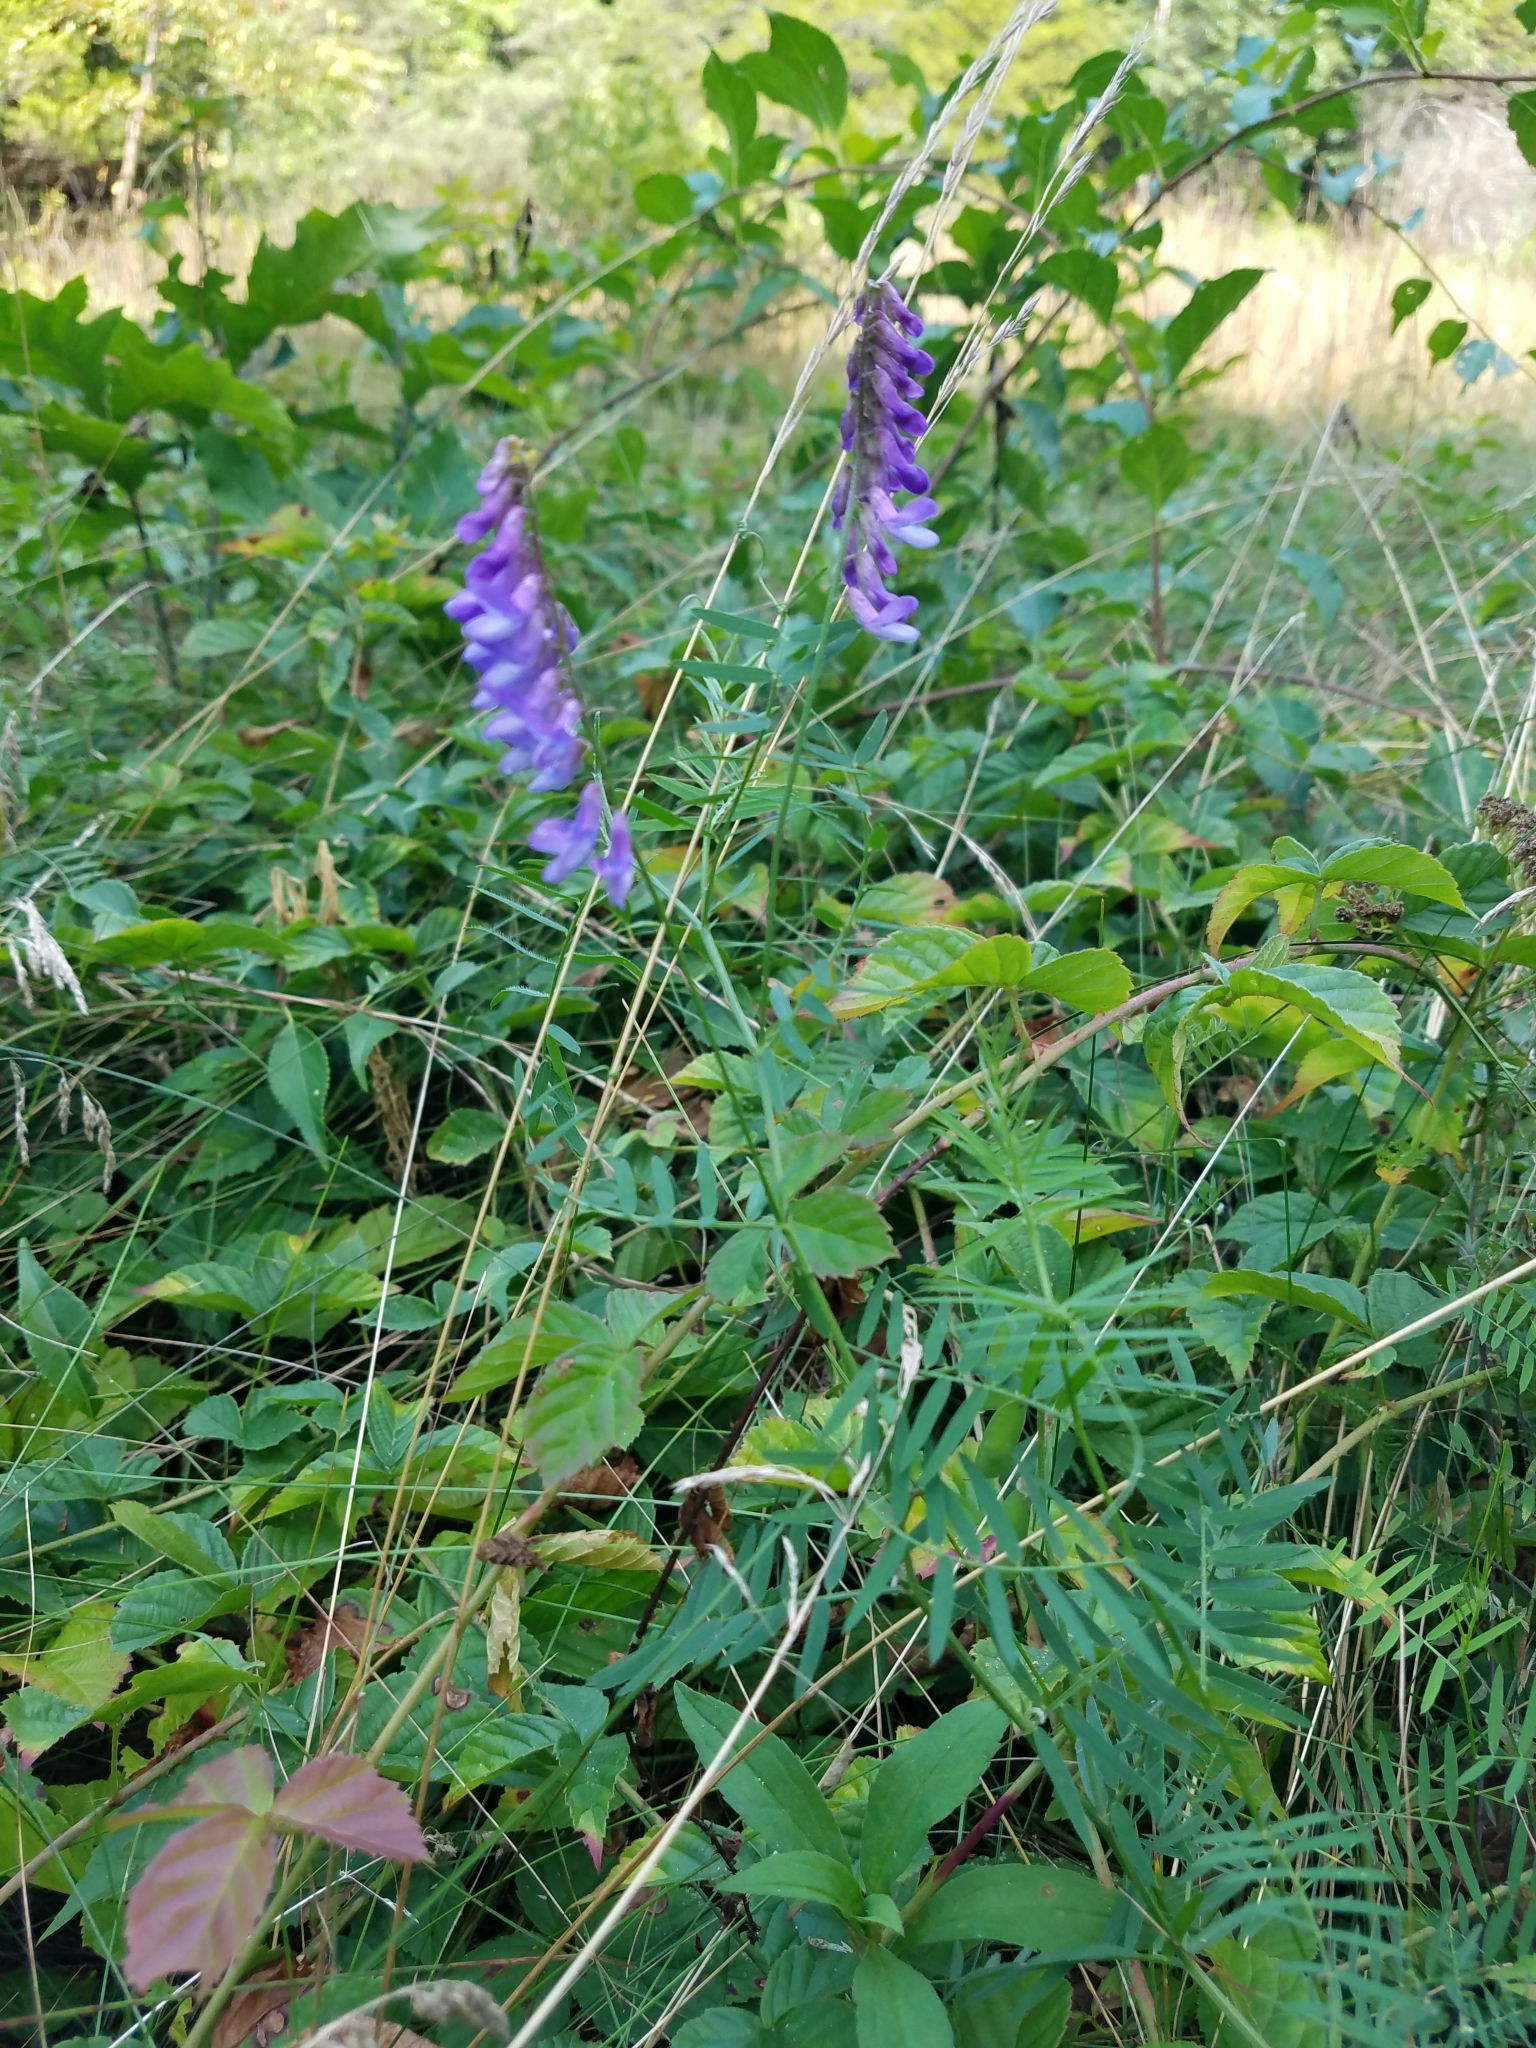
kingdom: Plantae
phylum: Tracheophyta
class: Magnoliopsida
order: Fabales
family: Fabaceae
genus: Vicia
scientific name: Vicia cracca
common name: Bird vetch
